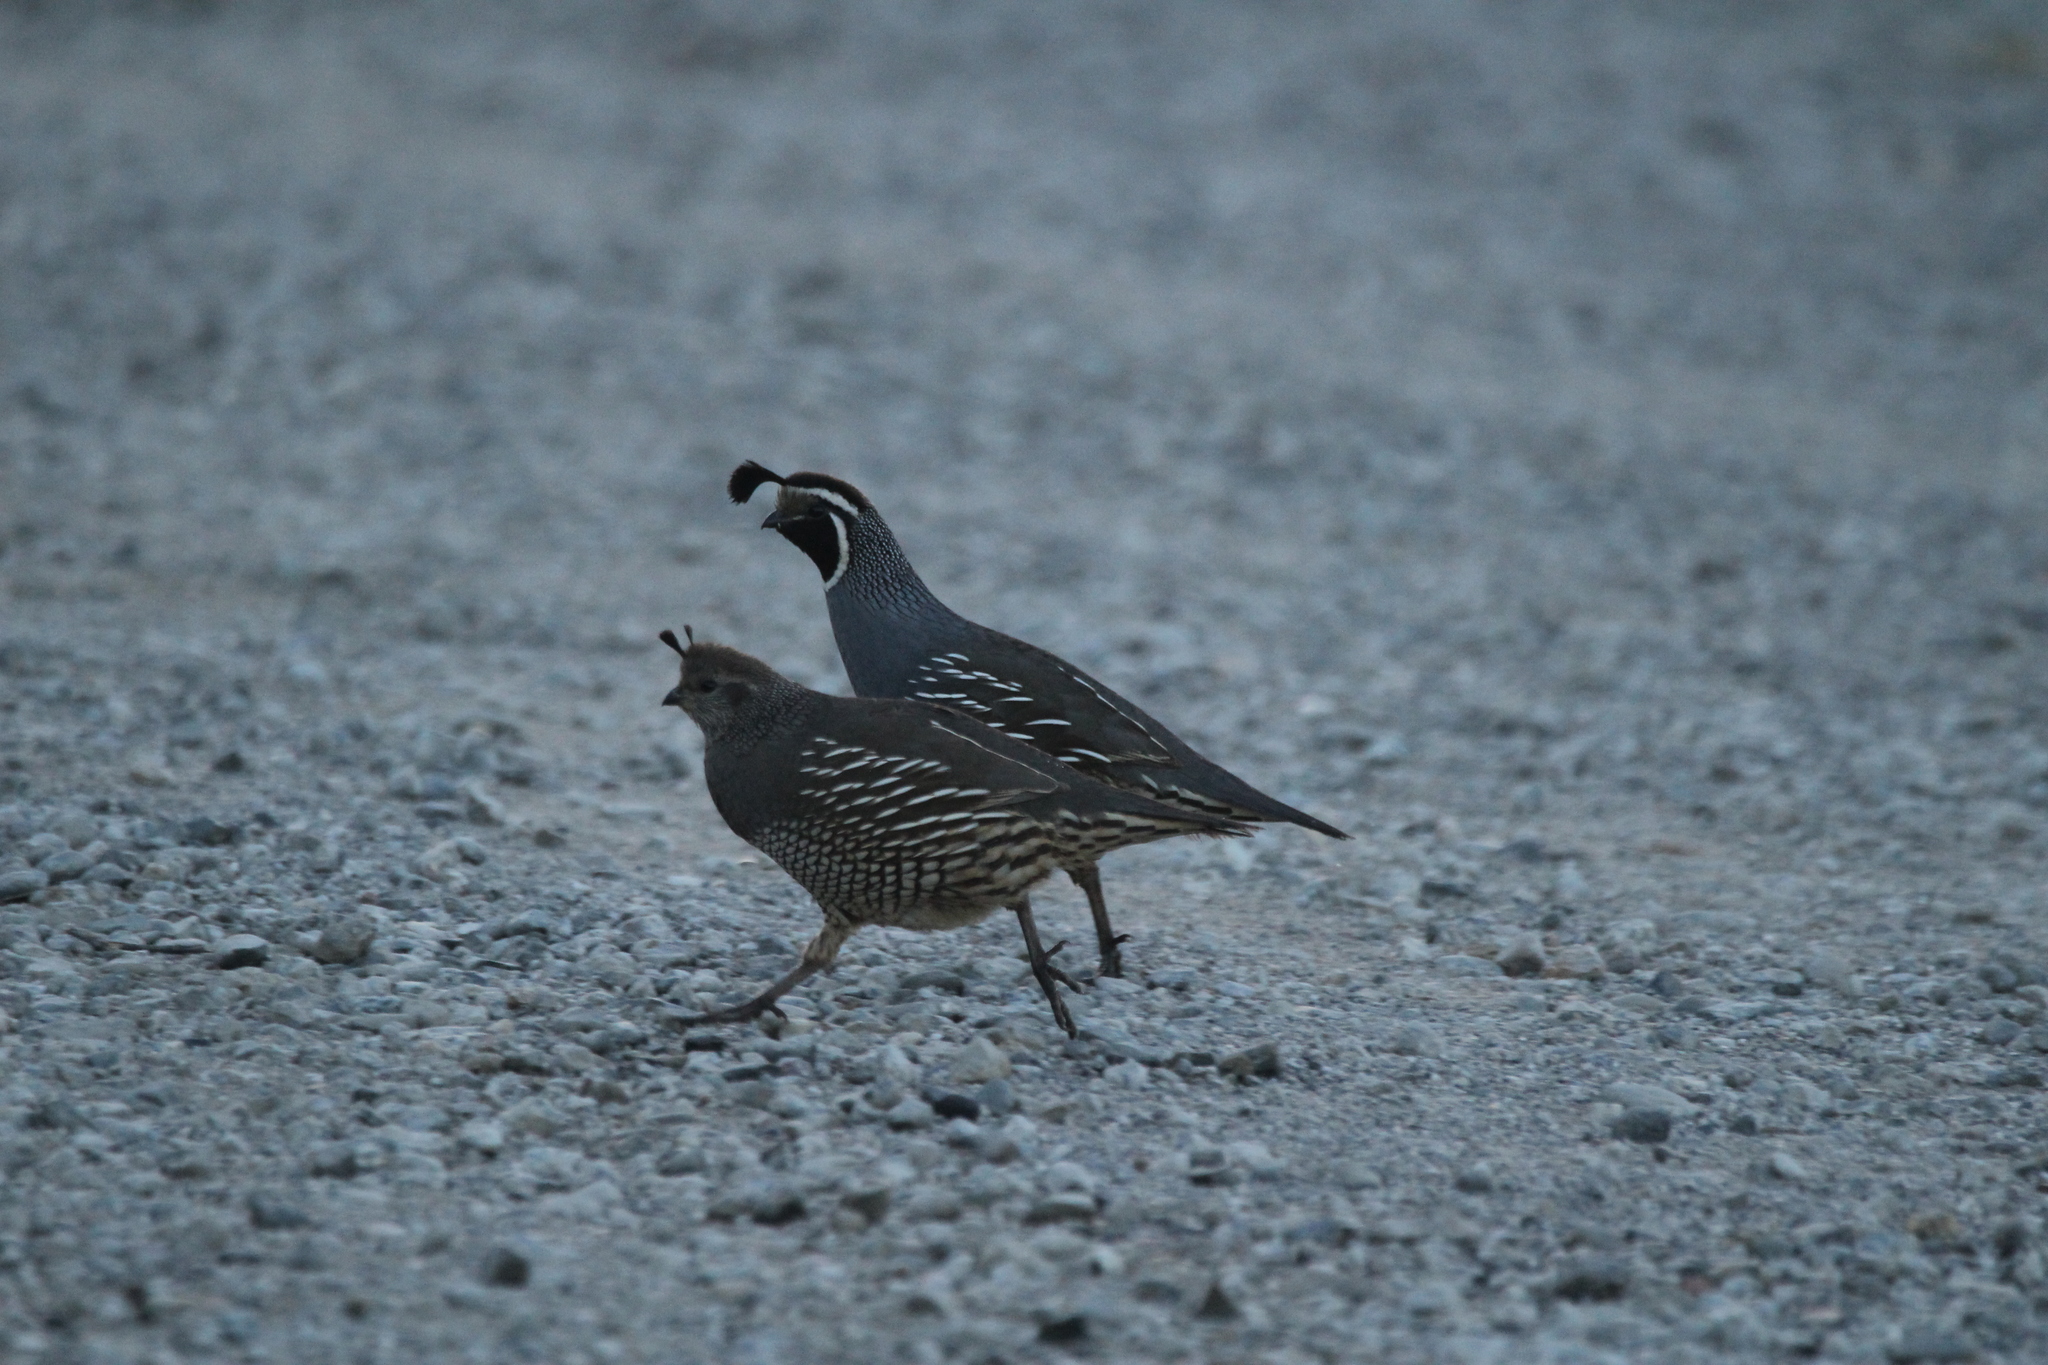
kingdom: Animalia
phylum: Chordata
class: Aves
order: Galliformes
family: Odontophoridae
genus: Callipepla
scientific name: Callipepla californica
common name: California quail
